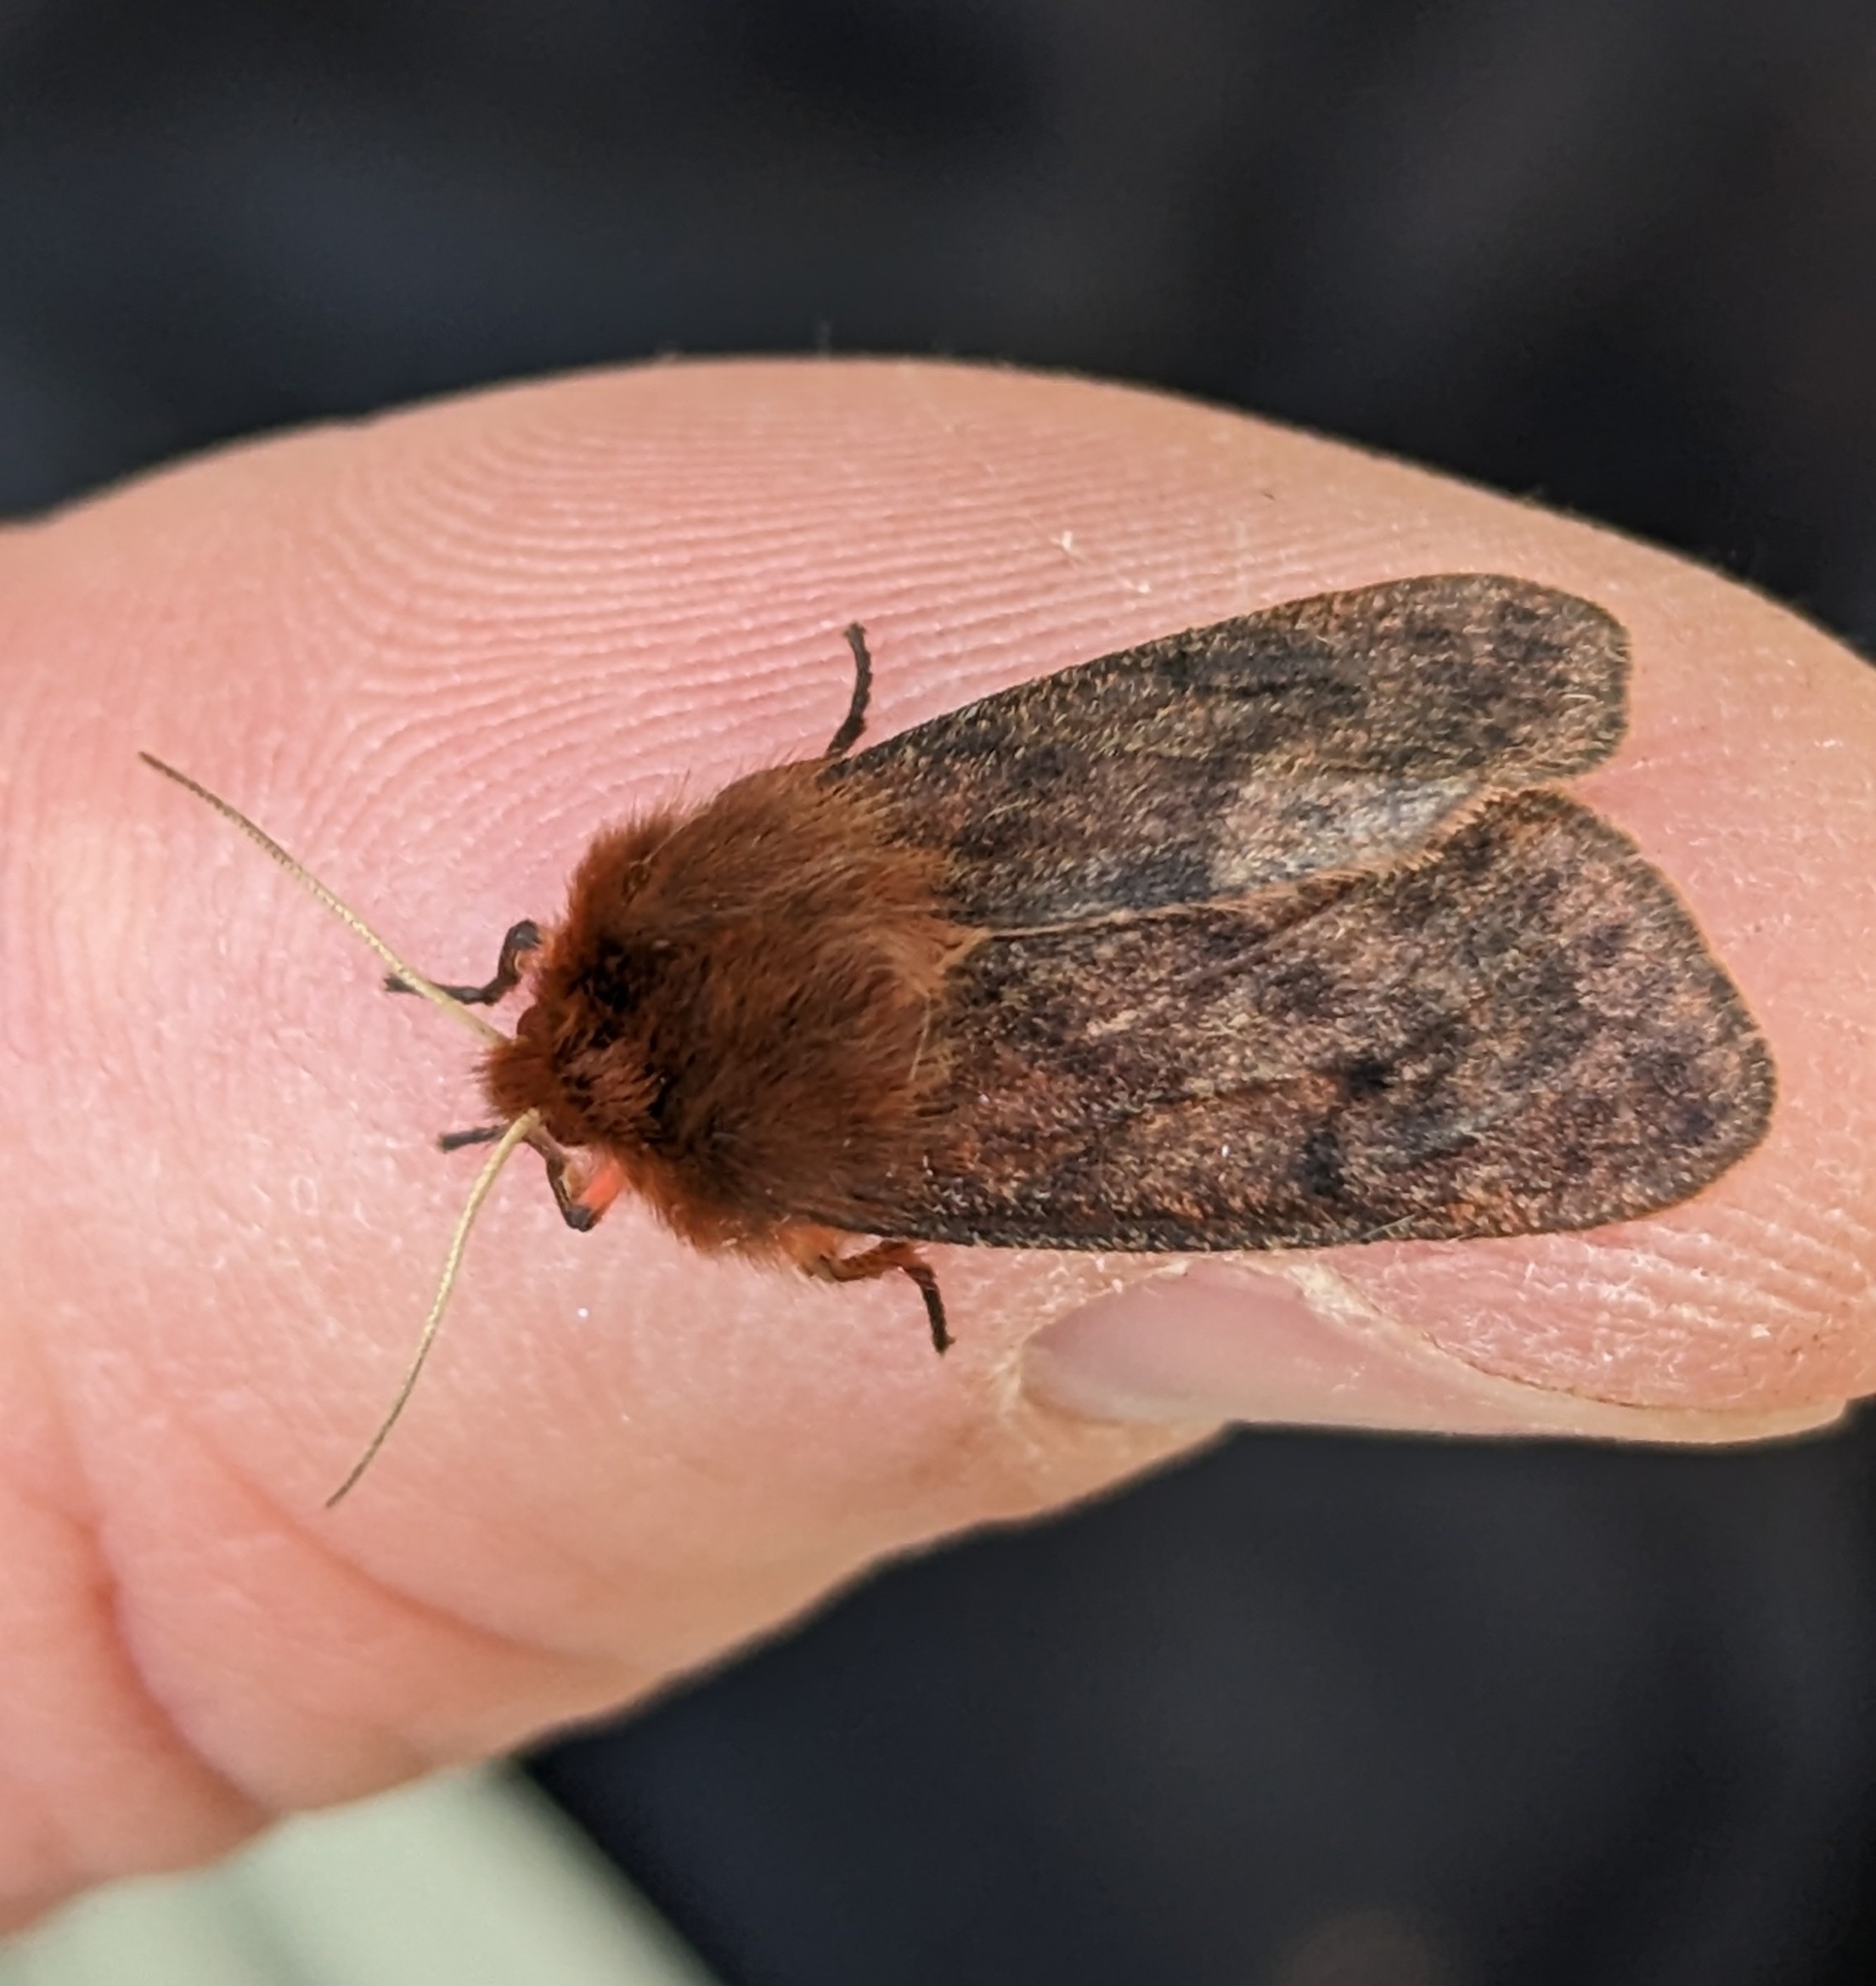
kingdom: Animalia
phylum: Arthropoda
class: Insecta
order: Lepidoptera
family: Erebidae
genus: Phragmatobia
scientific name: Phragmatobia assimilans
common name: Large ruby tiger moth
